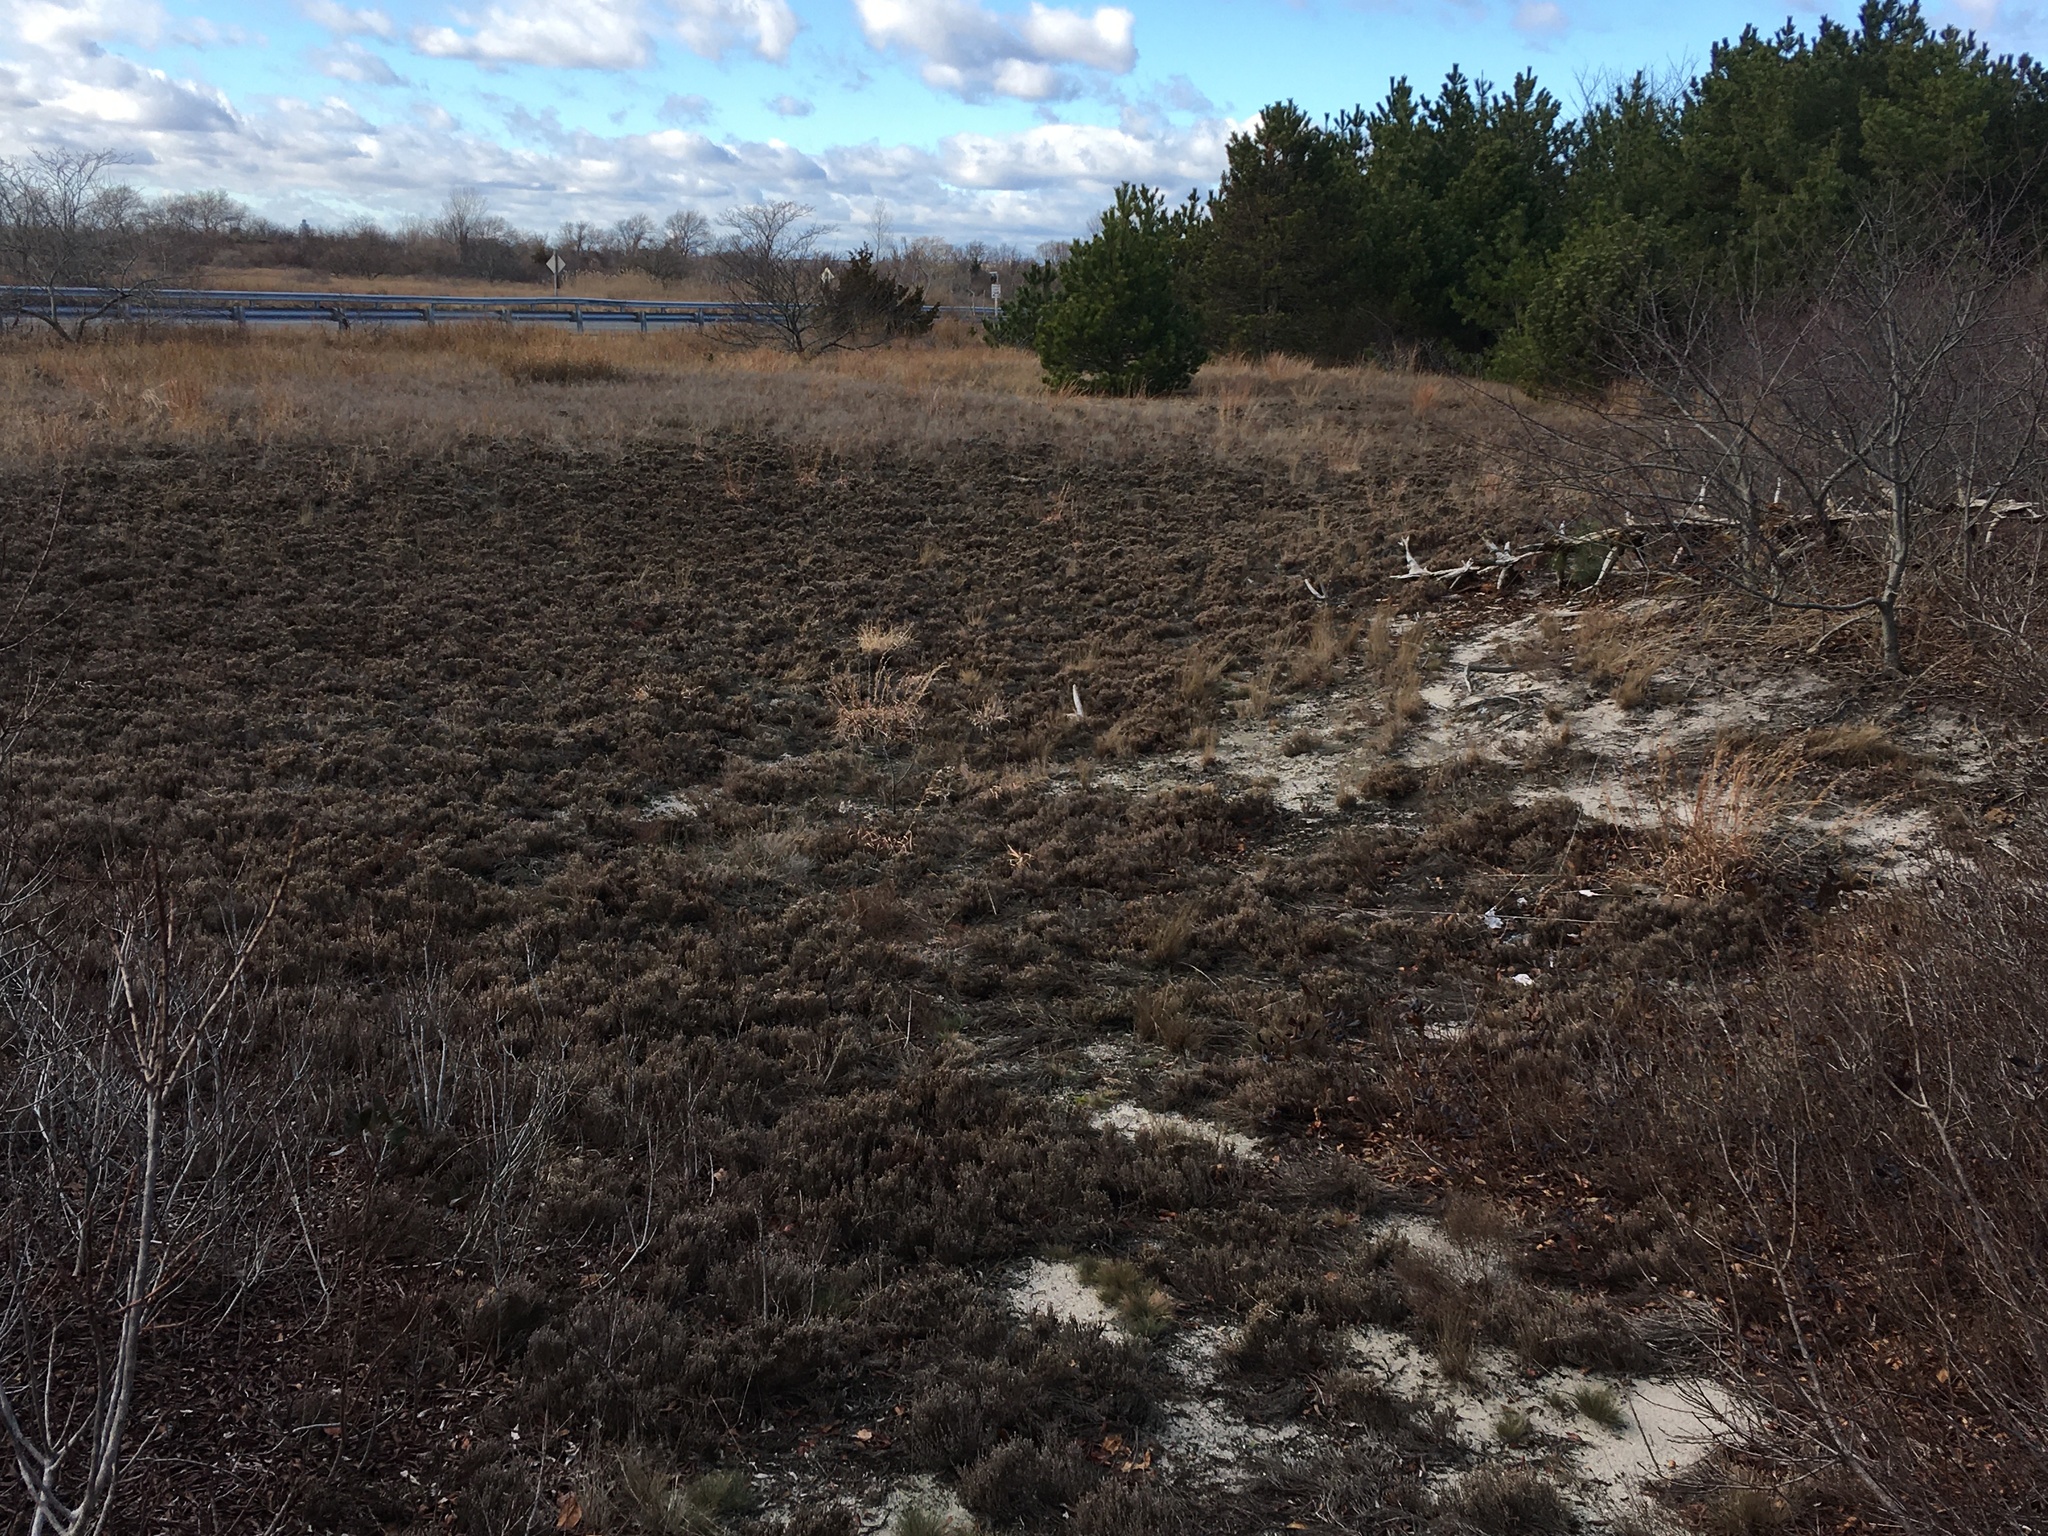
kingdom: Plantae
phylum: Tracheophyta
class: Magnoliopsida
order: Malvales
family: Cistaceae
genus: Hudsonia
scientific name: Hudsonia tomentosa
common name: Beach-heath
